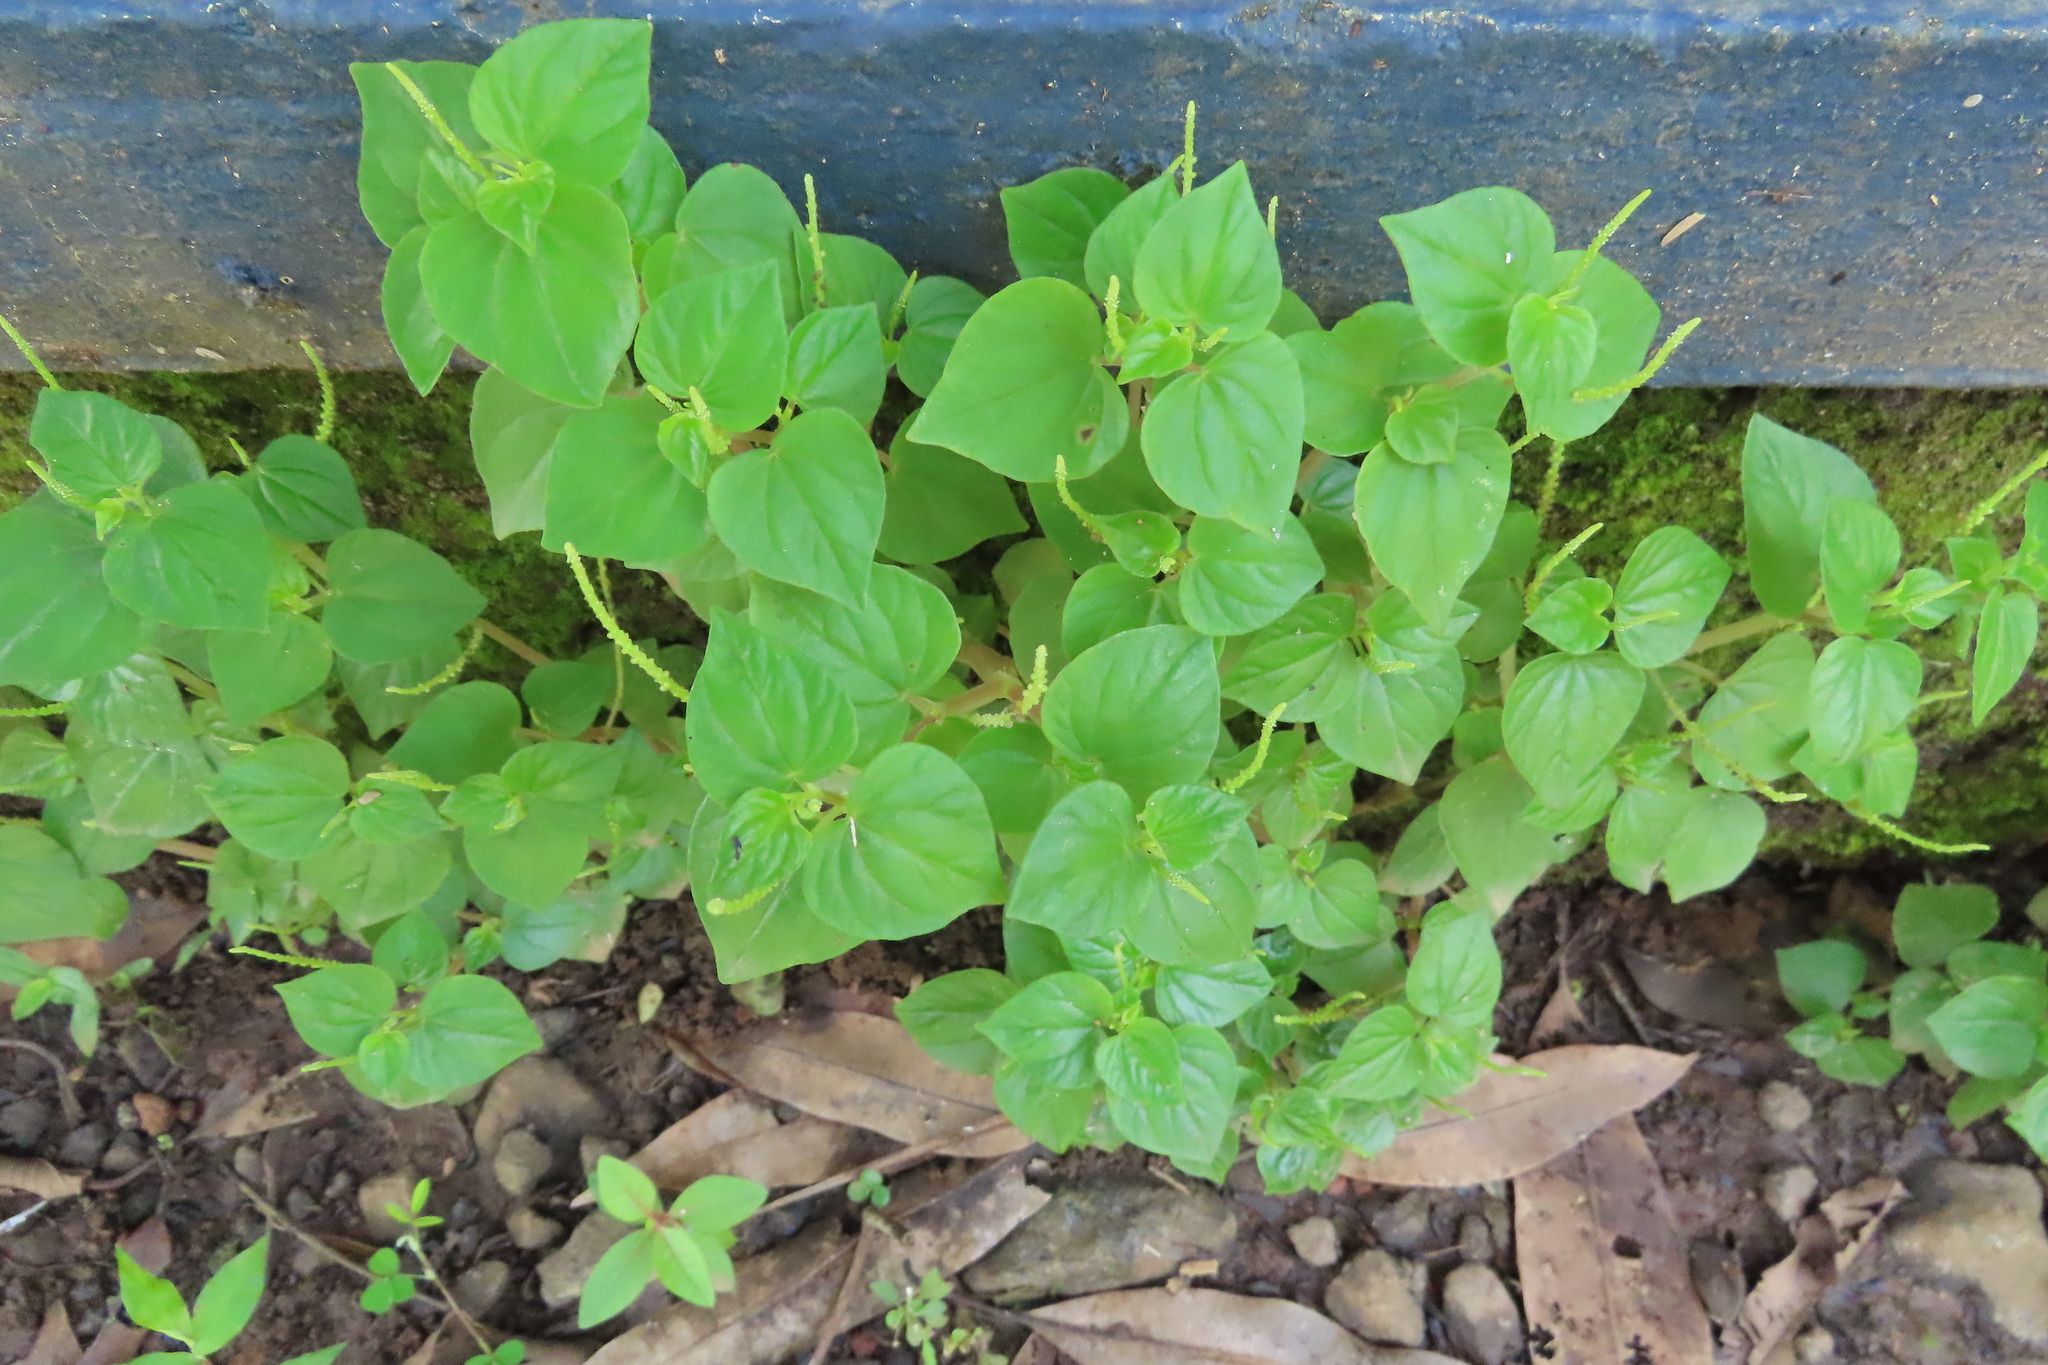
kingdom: Plantae
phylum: Tracheophyta
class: Magnoliopsida
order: Piperales
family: Piperaceae
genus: Peperomia
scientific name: Peperomia pellucida
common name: Man to man
